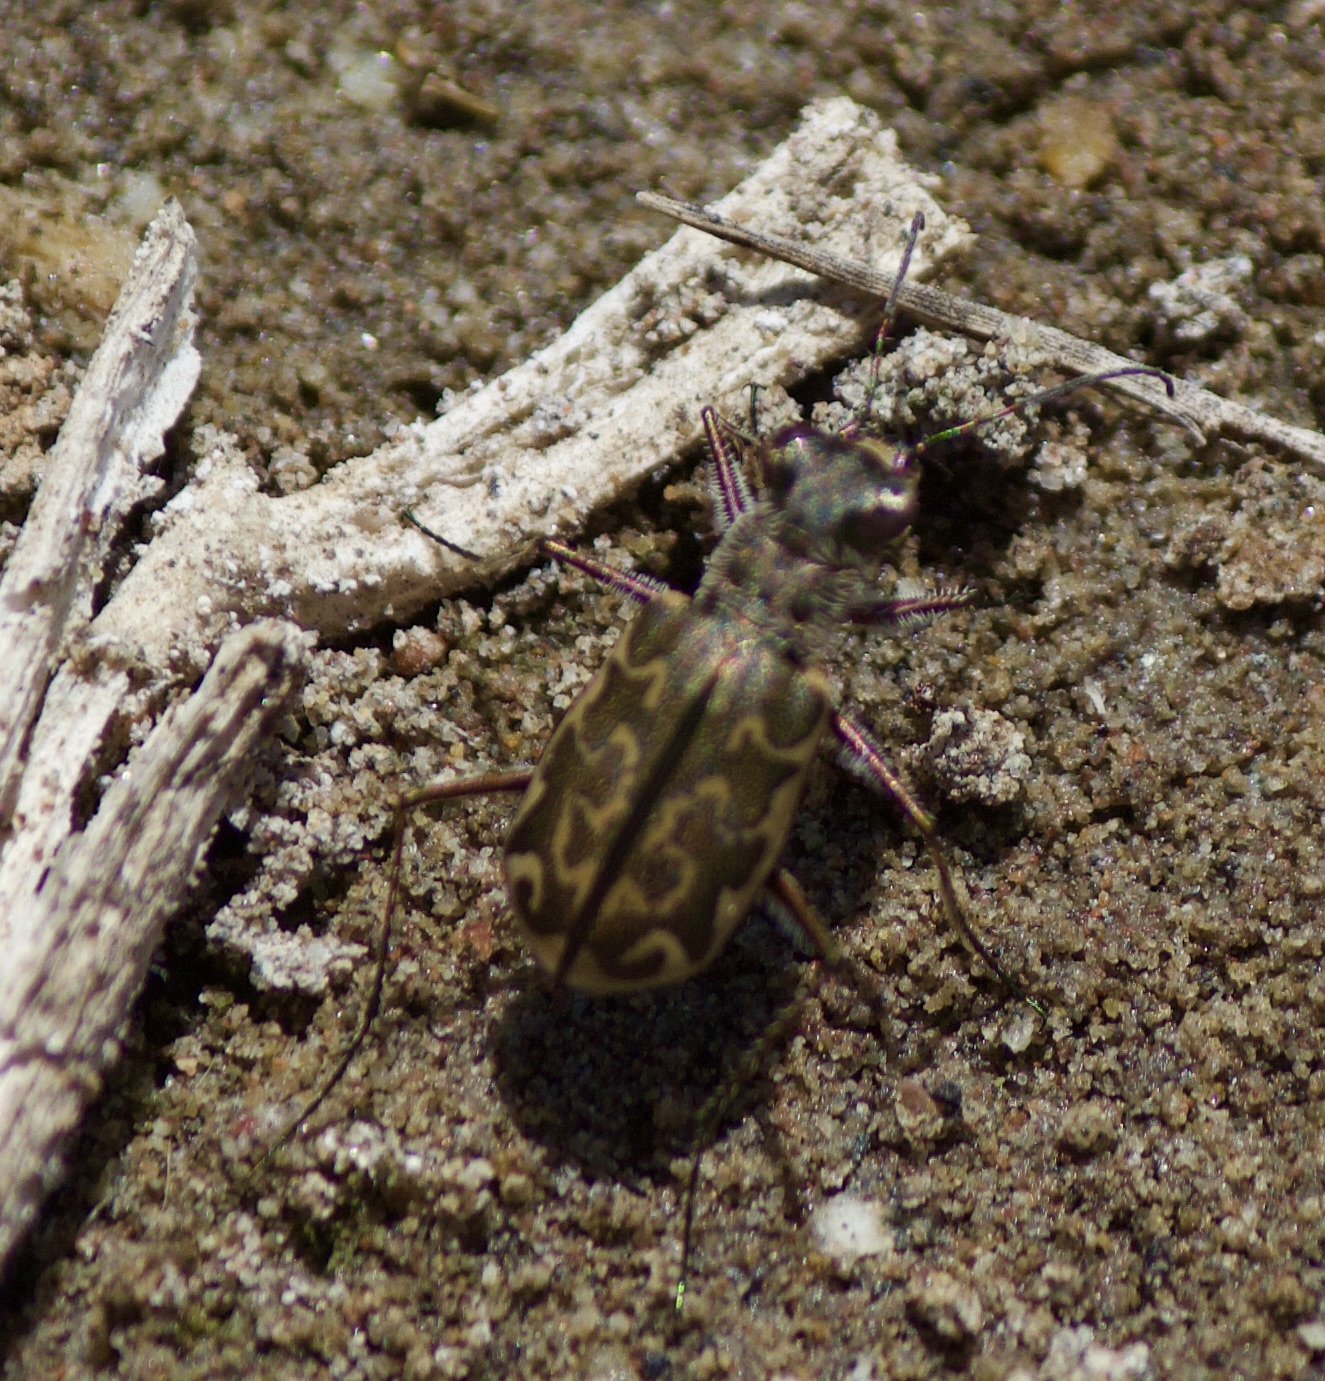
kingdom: Animalia
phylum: Arthropoda
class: Insecta
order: Coleoptera
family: Carabidae
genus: Cicindela
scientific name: Cicindela trifasciata
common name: Mudflat tiger beetle
